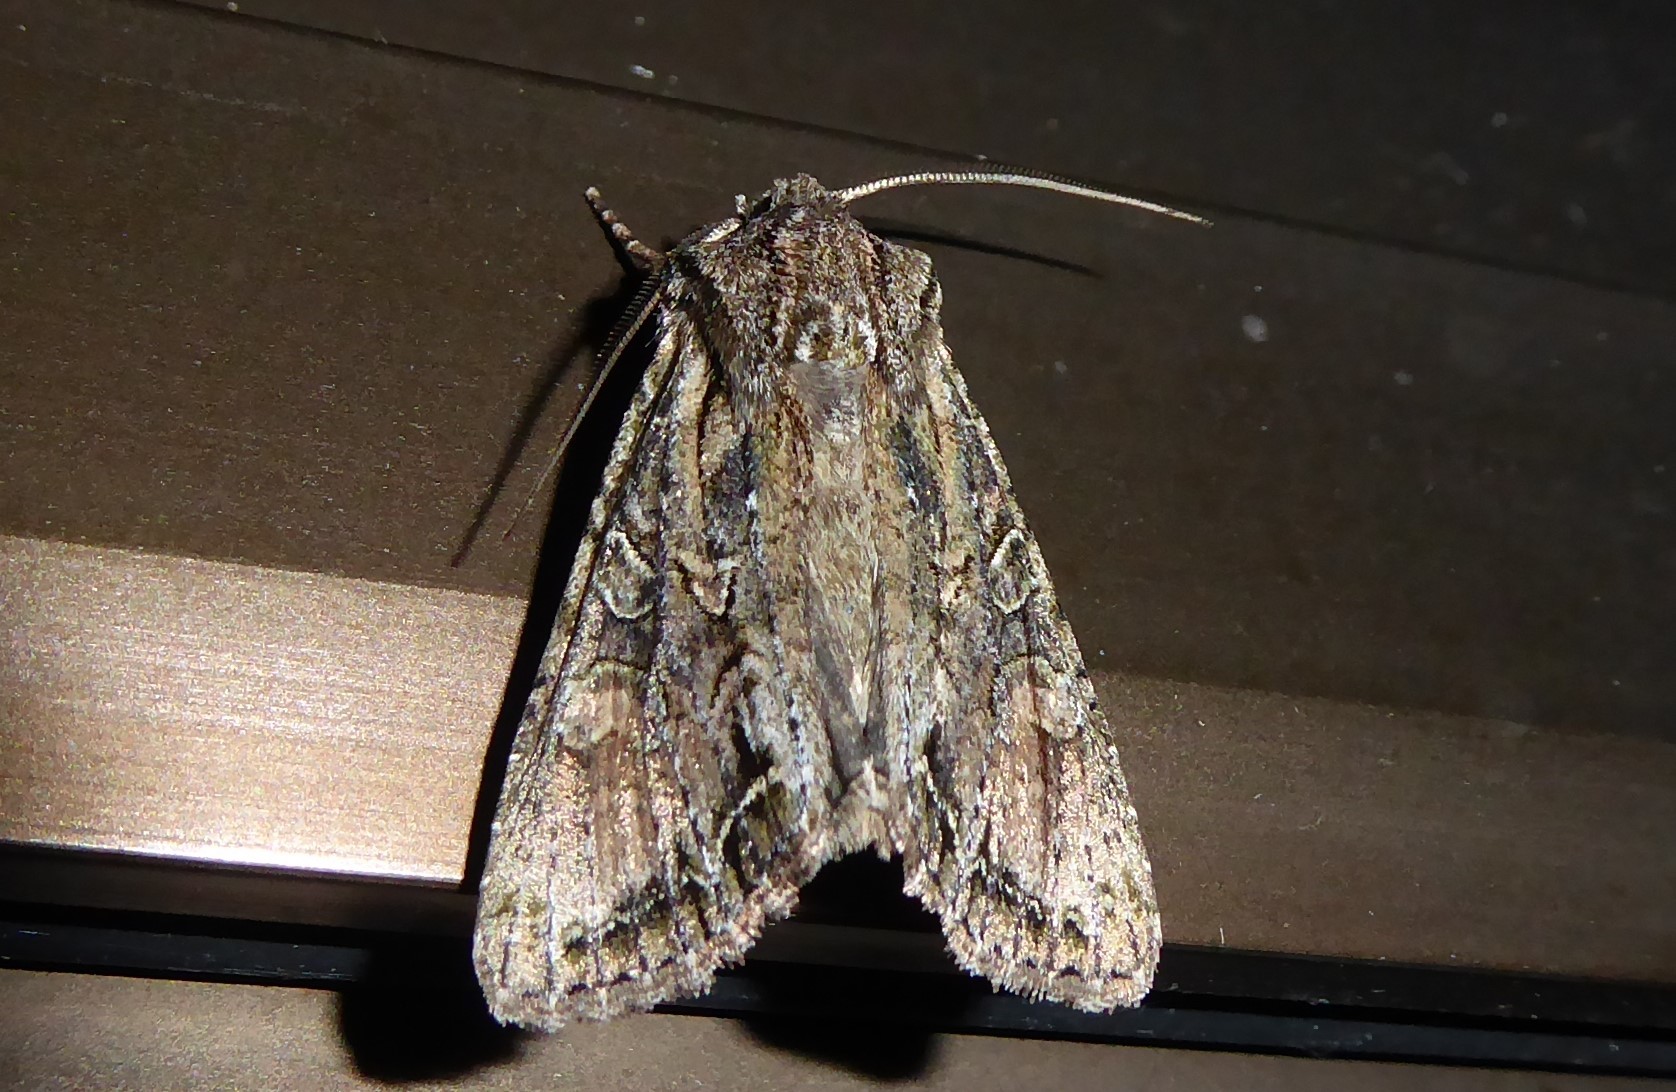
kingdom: Animalia
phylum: Arthropoda
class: Insecta
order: Lepidoptera
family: Noctuidae
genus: Ichneutica
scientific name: Ichneutica mutans
